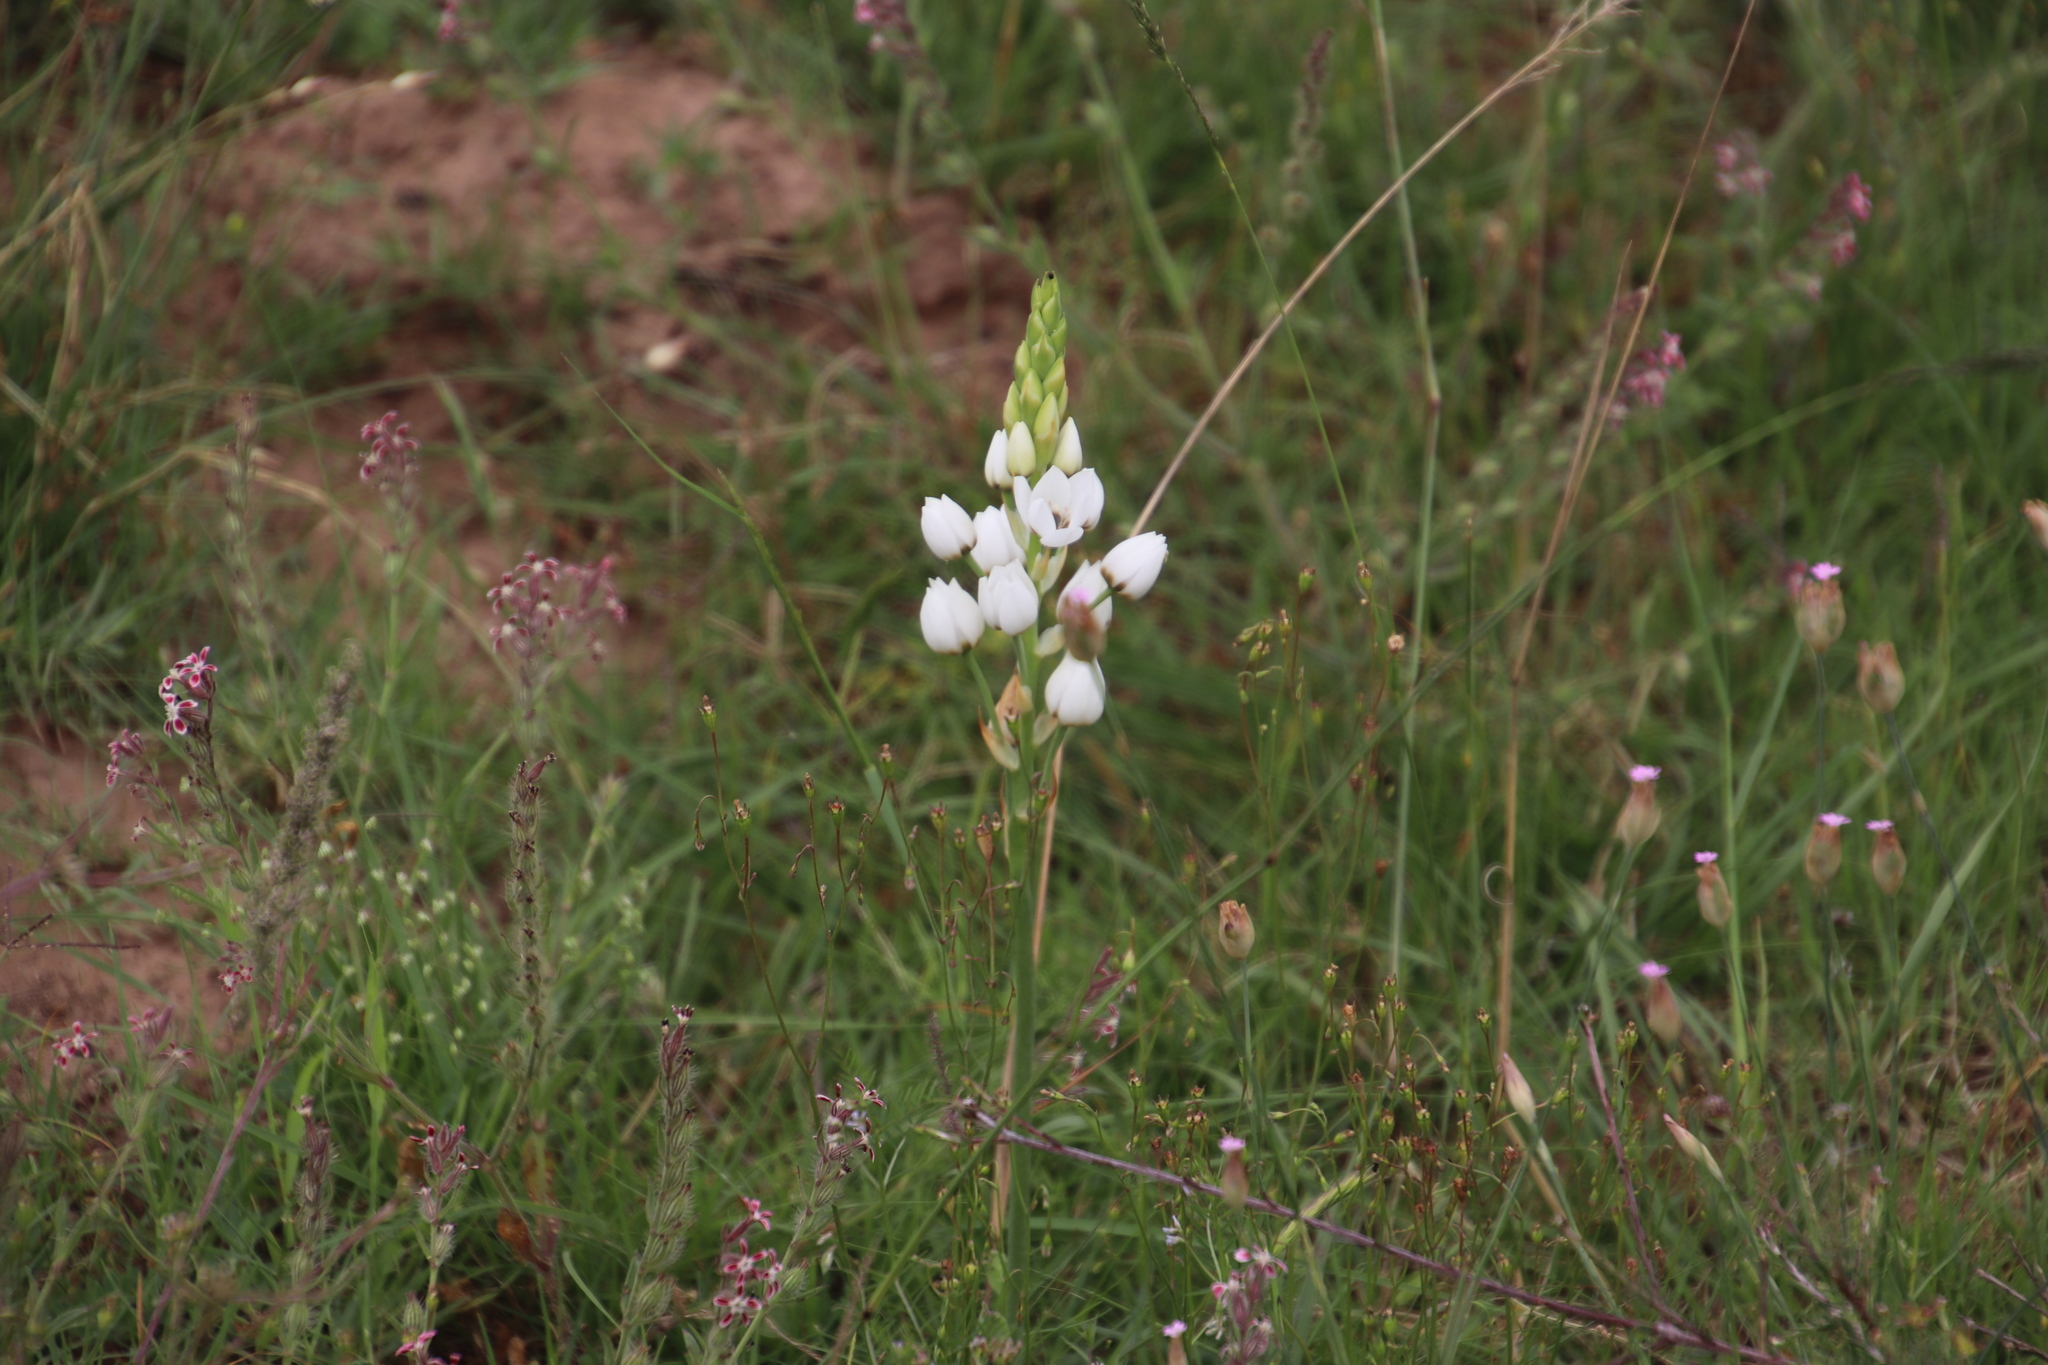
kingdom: Plantae
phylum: Tracheophyta
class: Liliopsida
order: Asparagales
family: Asparagaceae
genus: Ornithogalum
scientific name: Ornithogalum thyrsoides
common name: Chincherinchee
